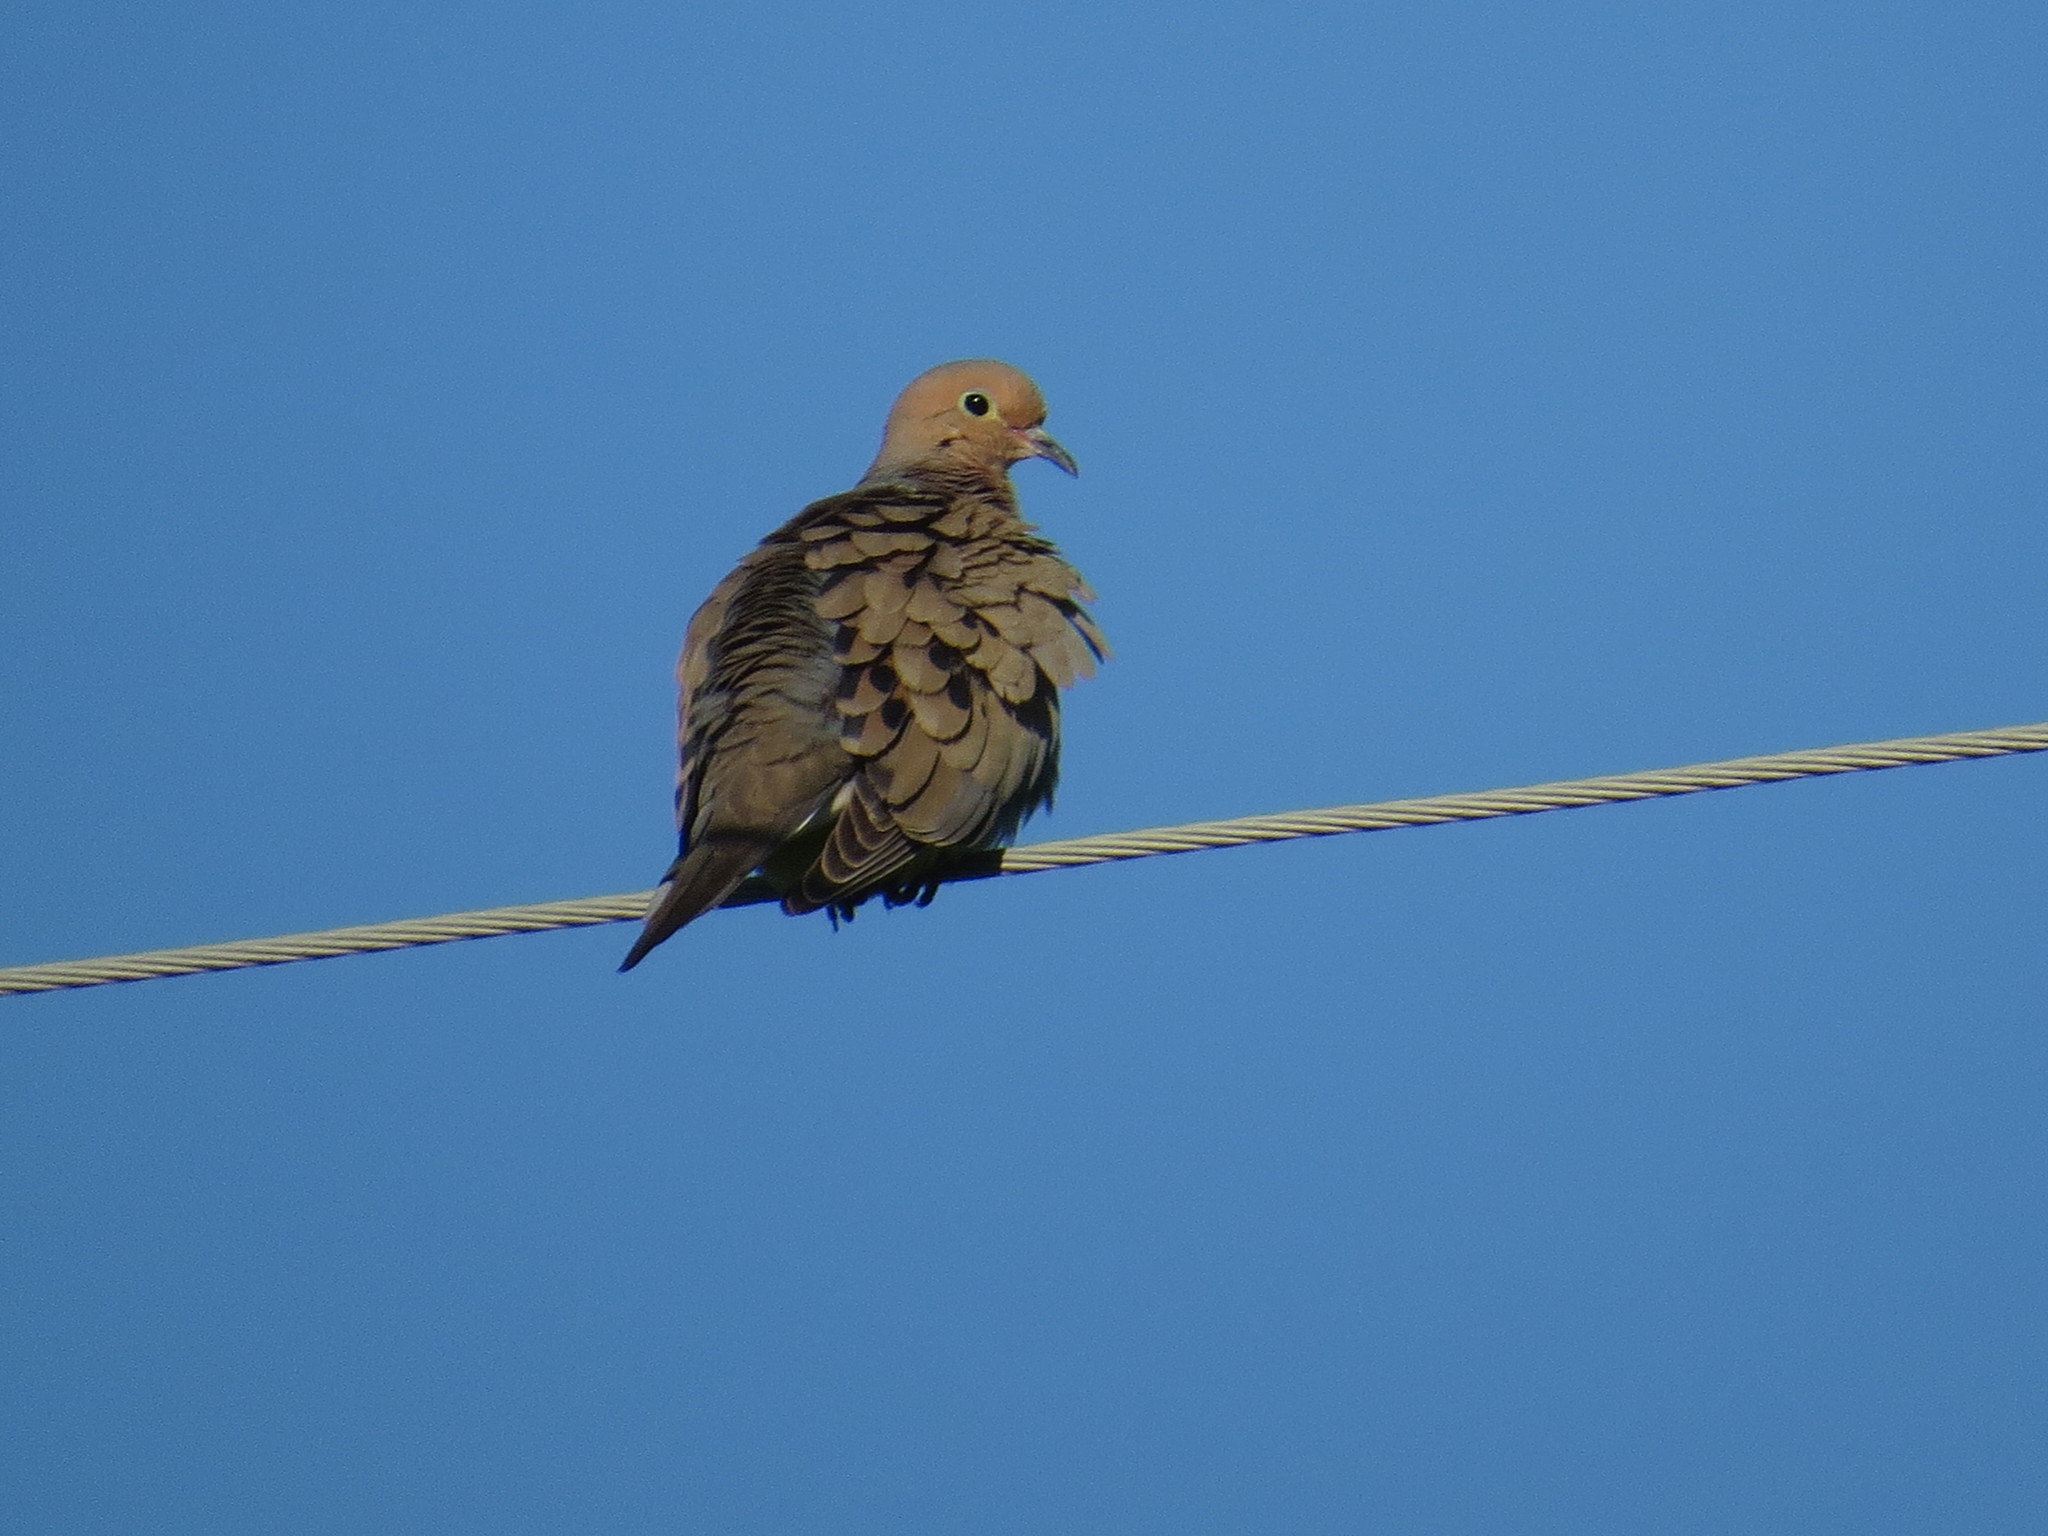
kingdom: Animalia
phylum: Chordata
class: Aves
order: Columbiformes
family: Columbidae
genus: Zenaida
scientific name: Zenaida macroura
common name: Mourning dove
